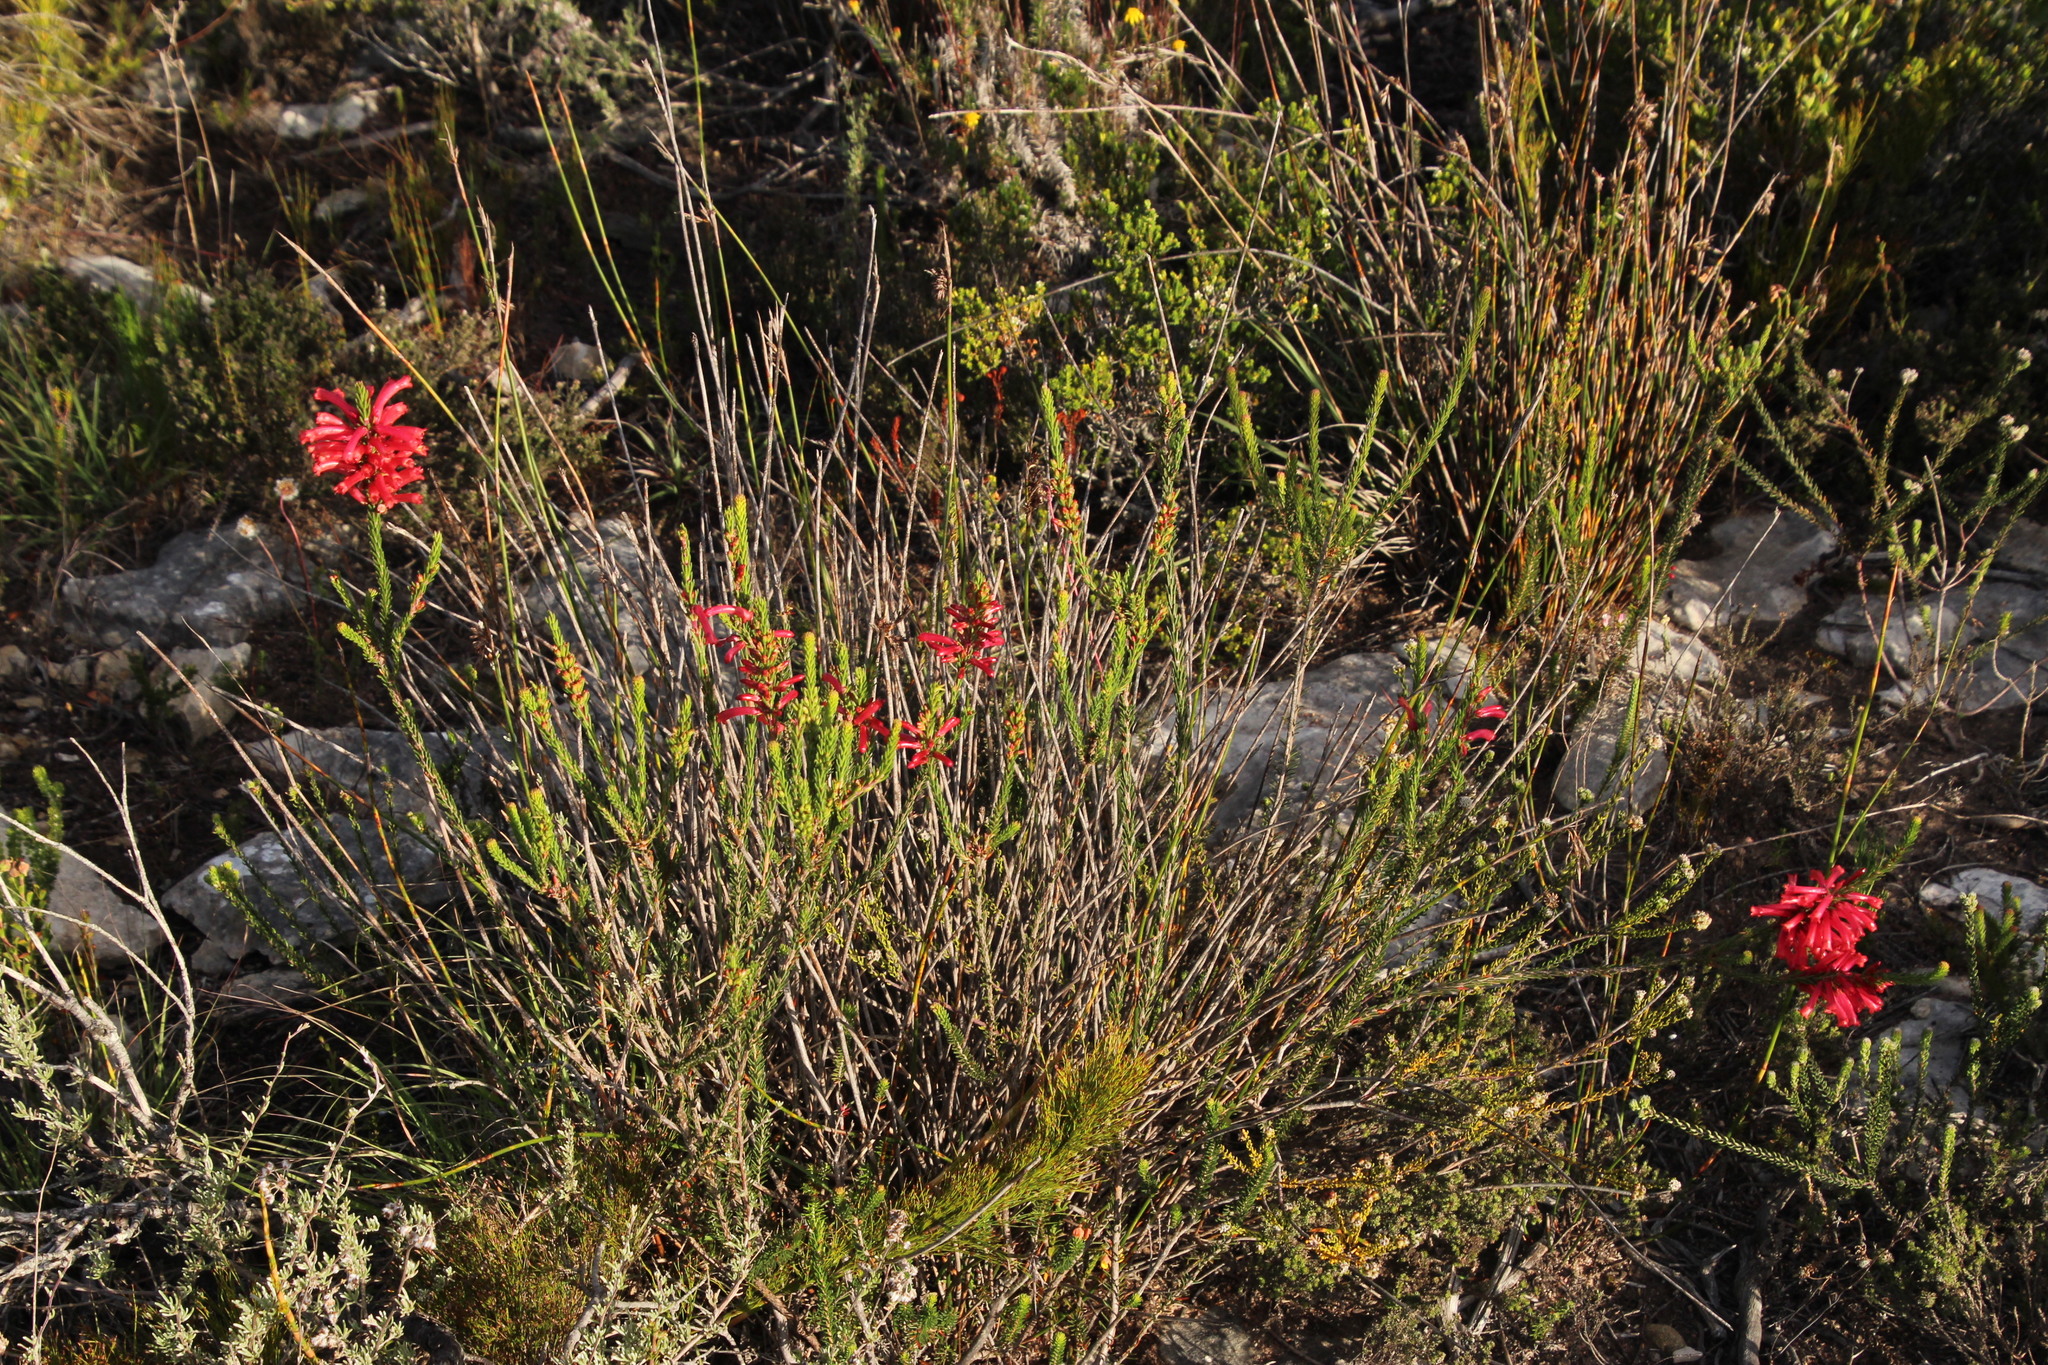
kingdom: Plantae
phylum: Tracheophyta
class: Magnoliopsida
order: Ericales
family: Ericaceae
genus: Erica
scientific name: Erica regia
